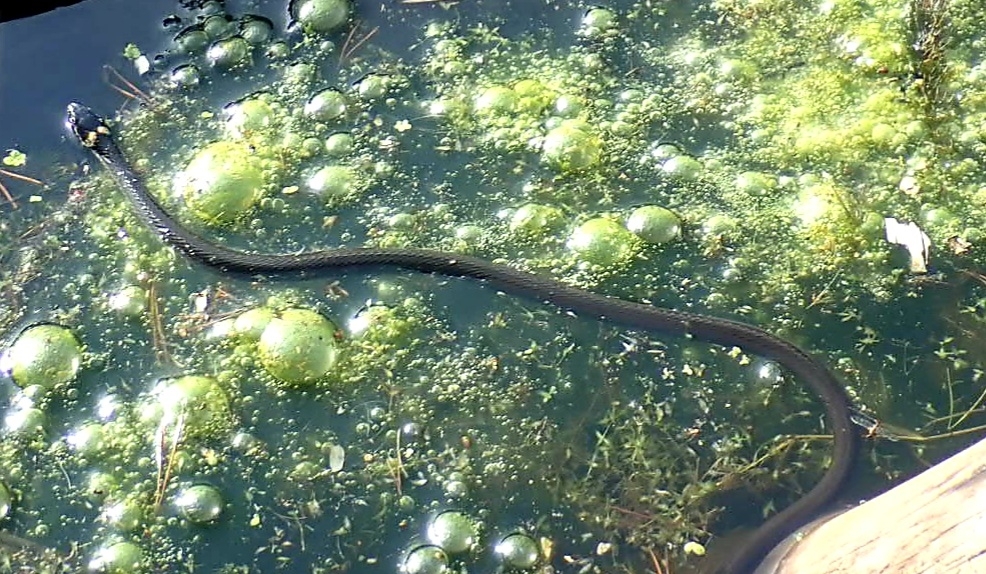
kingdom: Animalia
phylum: Chordata
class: Squamata
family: Colubridae
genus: Natrix
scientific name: Natrix natrix
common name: Grass snake
